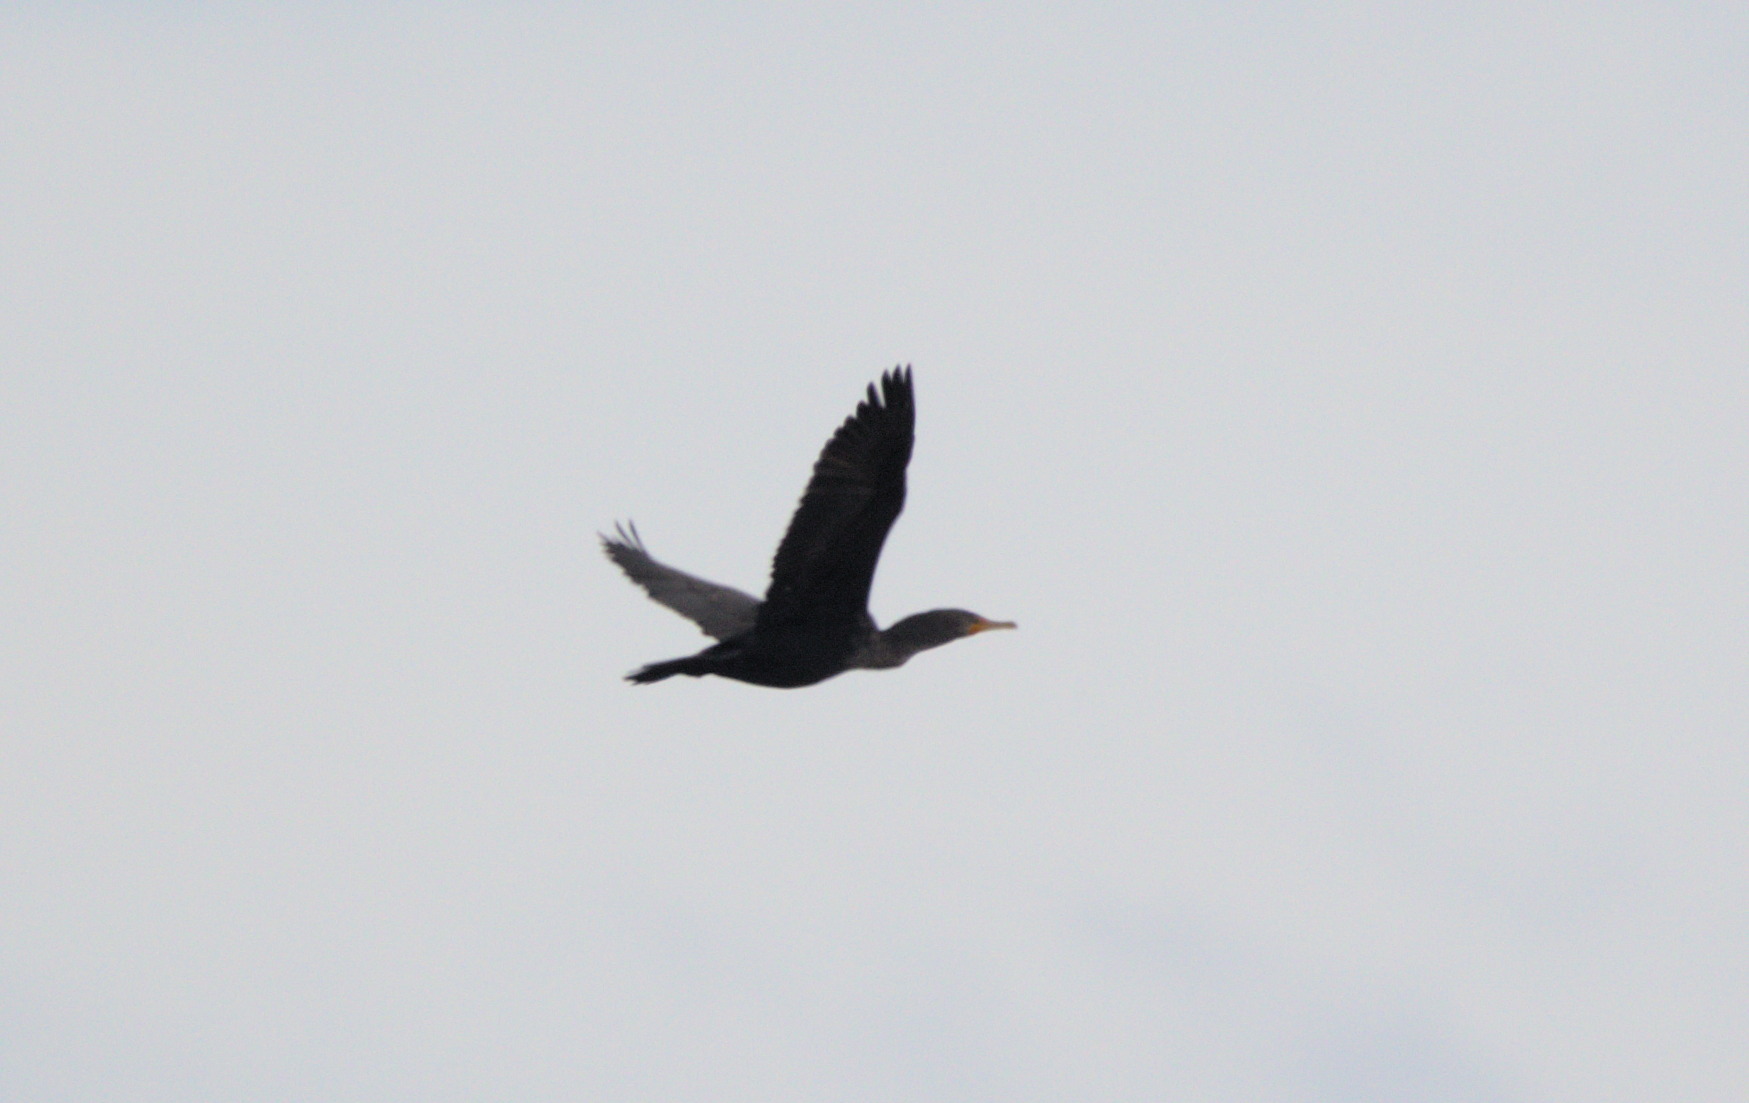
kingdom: Animalia
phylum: Chordata
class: Aves
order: Suliformes
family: Phalacrocoracidae
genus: Phalacrocorax
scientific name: Phalacrocorax auritus
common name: Double-crested cormorant
